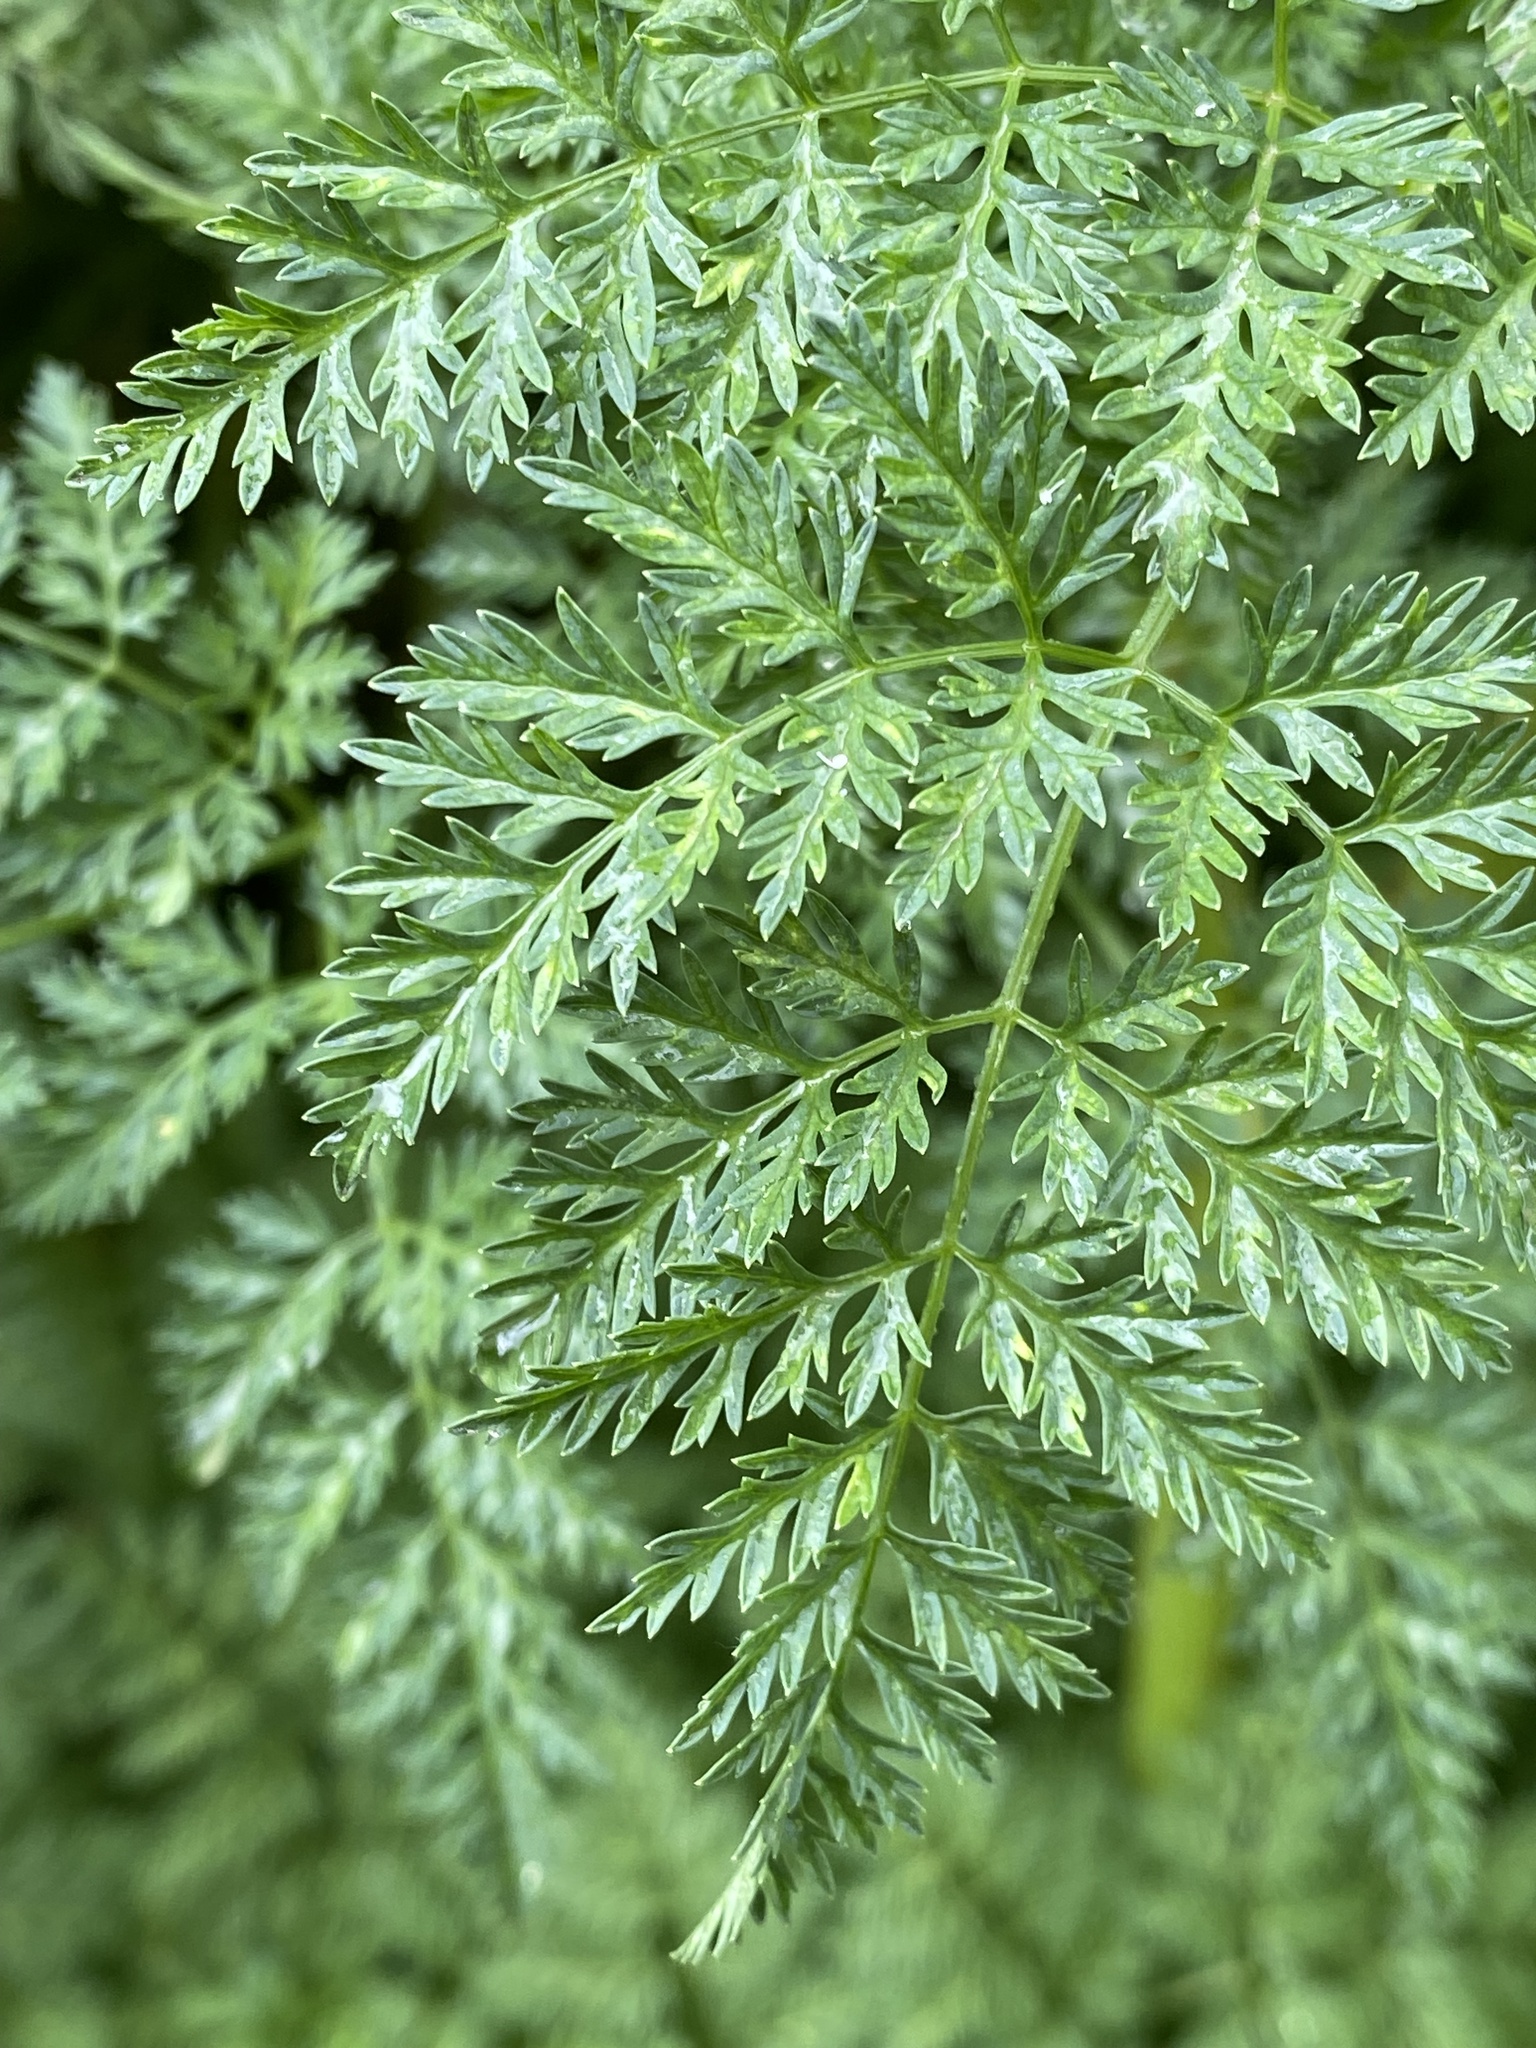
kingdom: Plantae
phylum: Tracheophyta
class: Magnoliopsida
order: Apiales
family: Apiaceae
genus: Conium
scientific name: Conium maculatum
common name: Hemlock
